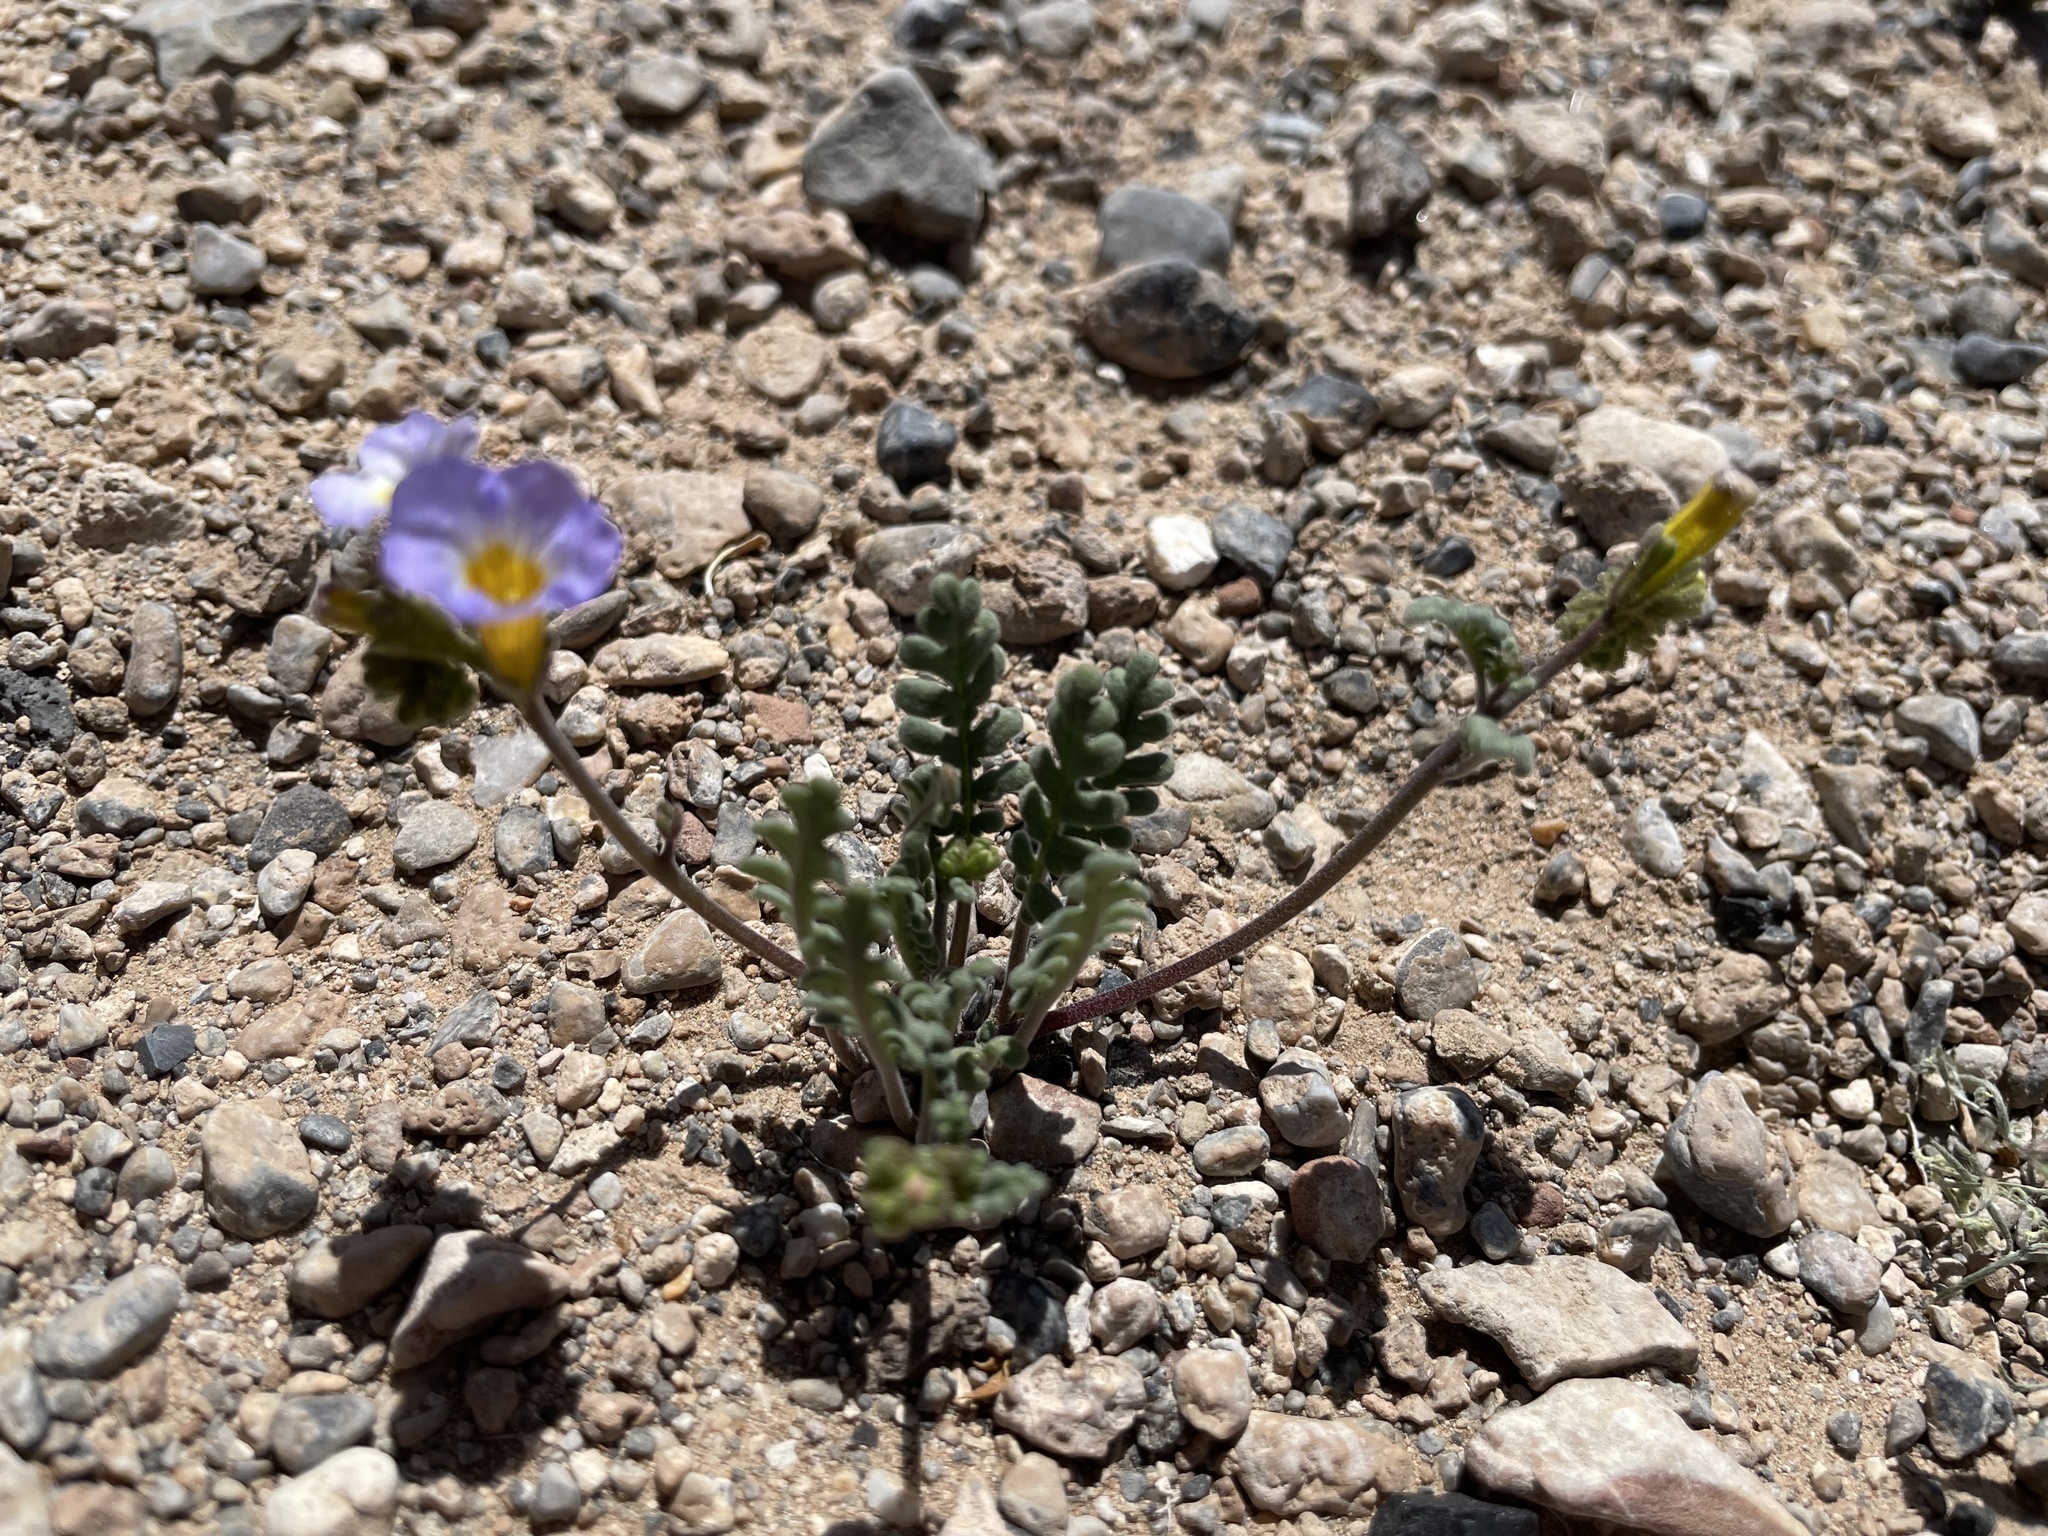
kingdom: Plantae
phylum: Tracheophyta
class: Magnoliopsida
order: Boraginales
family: Hydrophyllaceae
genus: Phacelia
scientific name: Phacelia fremontii
